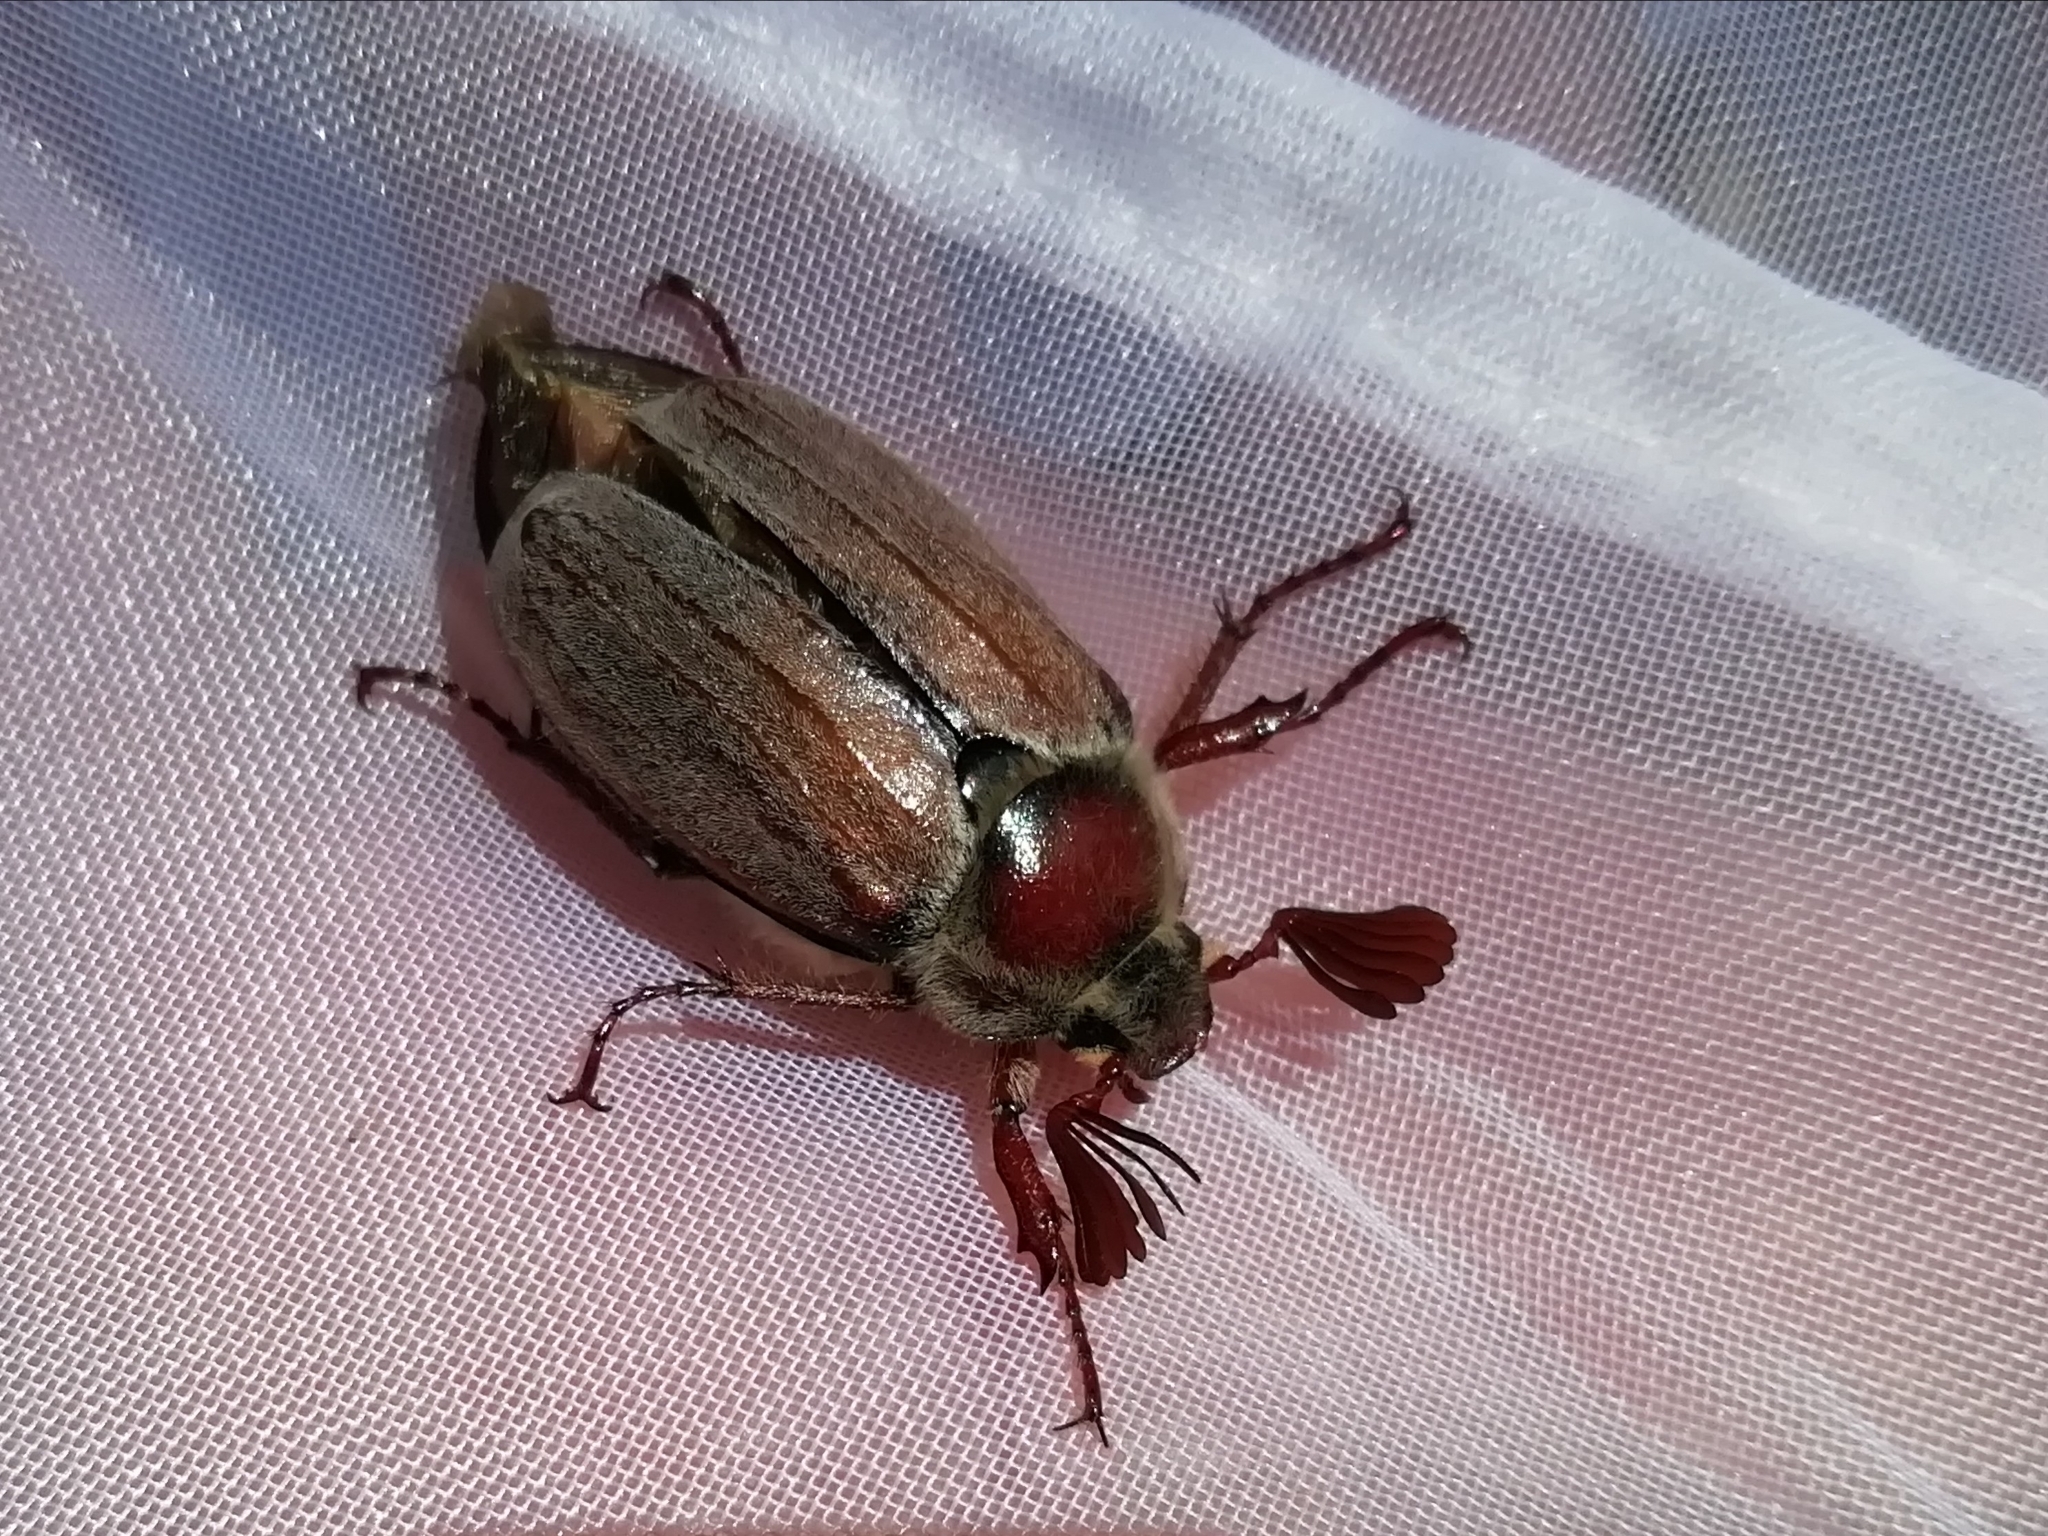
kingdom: Animalia
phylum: Arthropoda
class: Insecta
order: Coleoptera
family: Scarabaeidae
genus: Melolontha
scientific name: Melolontha hippocastani
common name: Chestnut cockchafer
